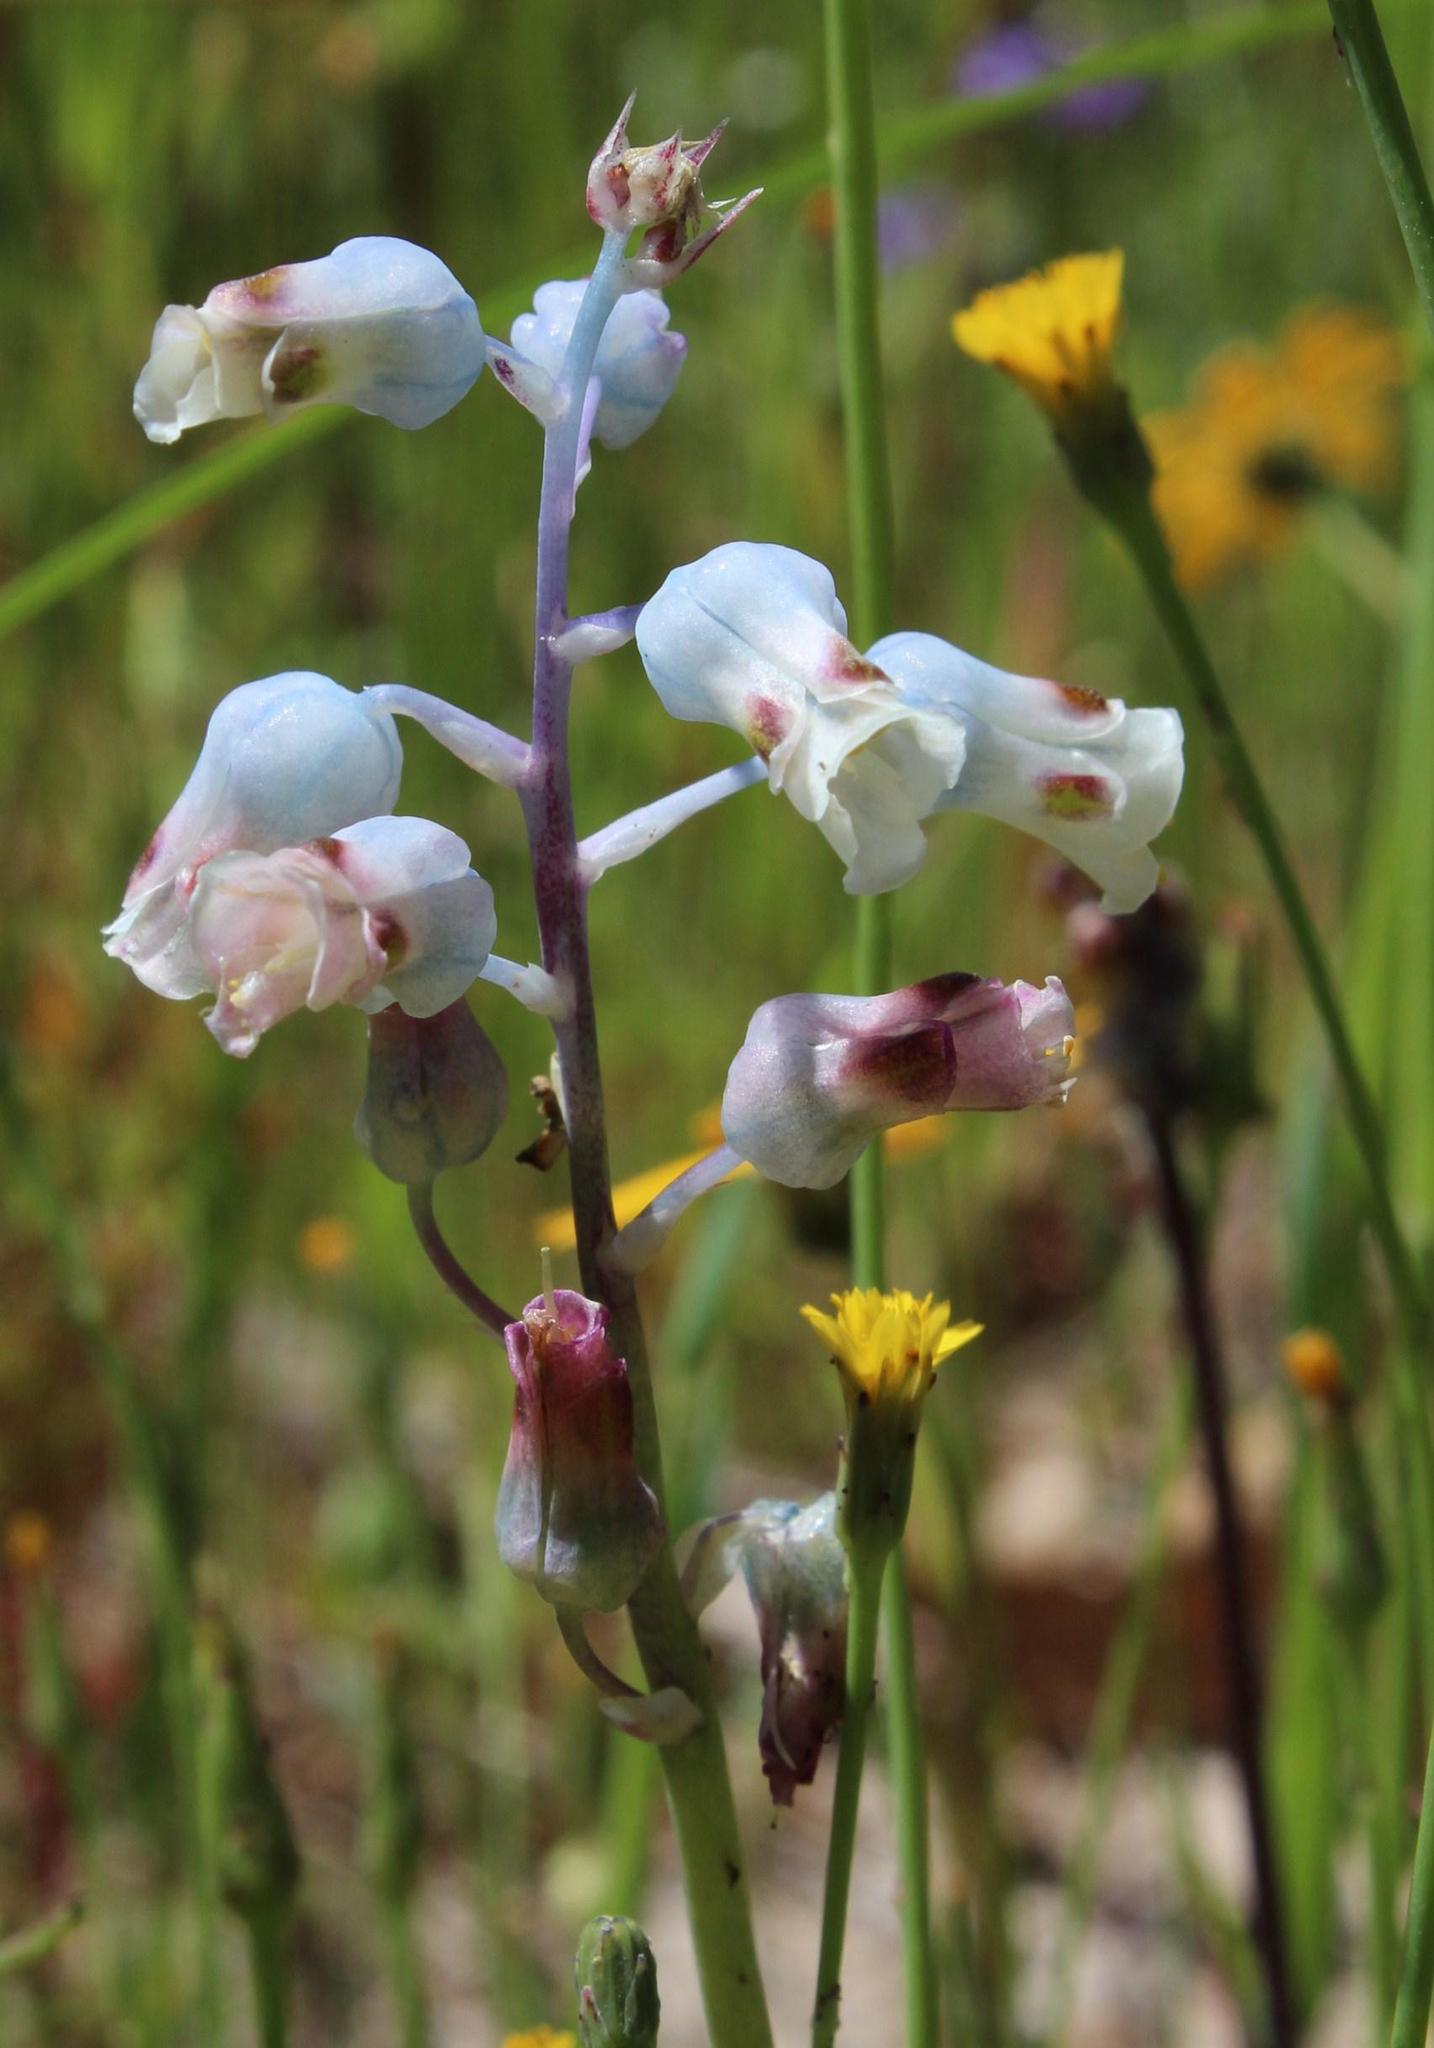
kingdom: Plantae
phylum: Tracheophyta
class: Liliopsida
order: Asparagales
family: Asparagaceae
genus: Lachenalia
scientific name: Lachenalia unifolia
